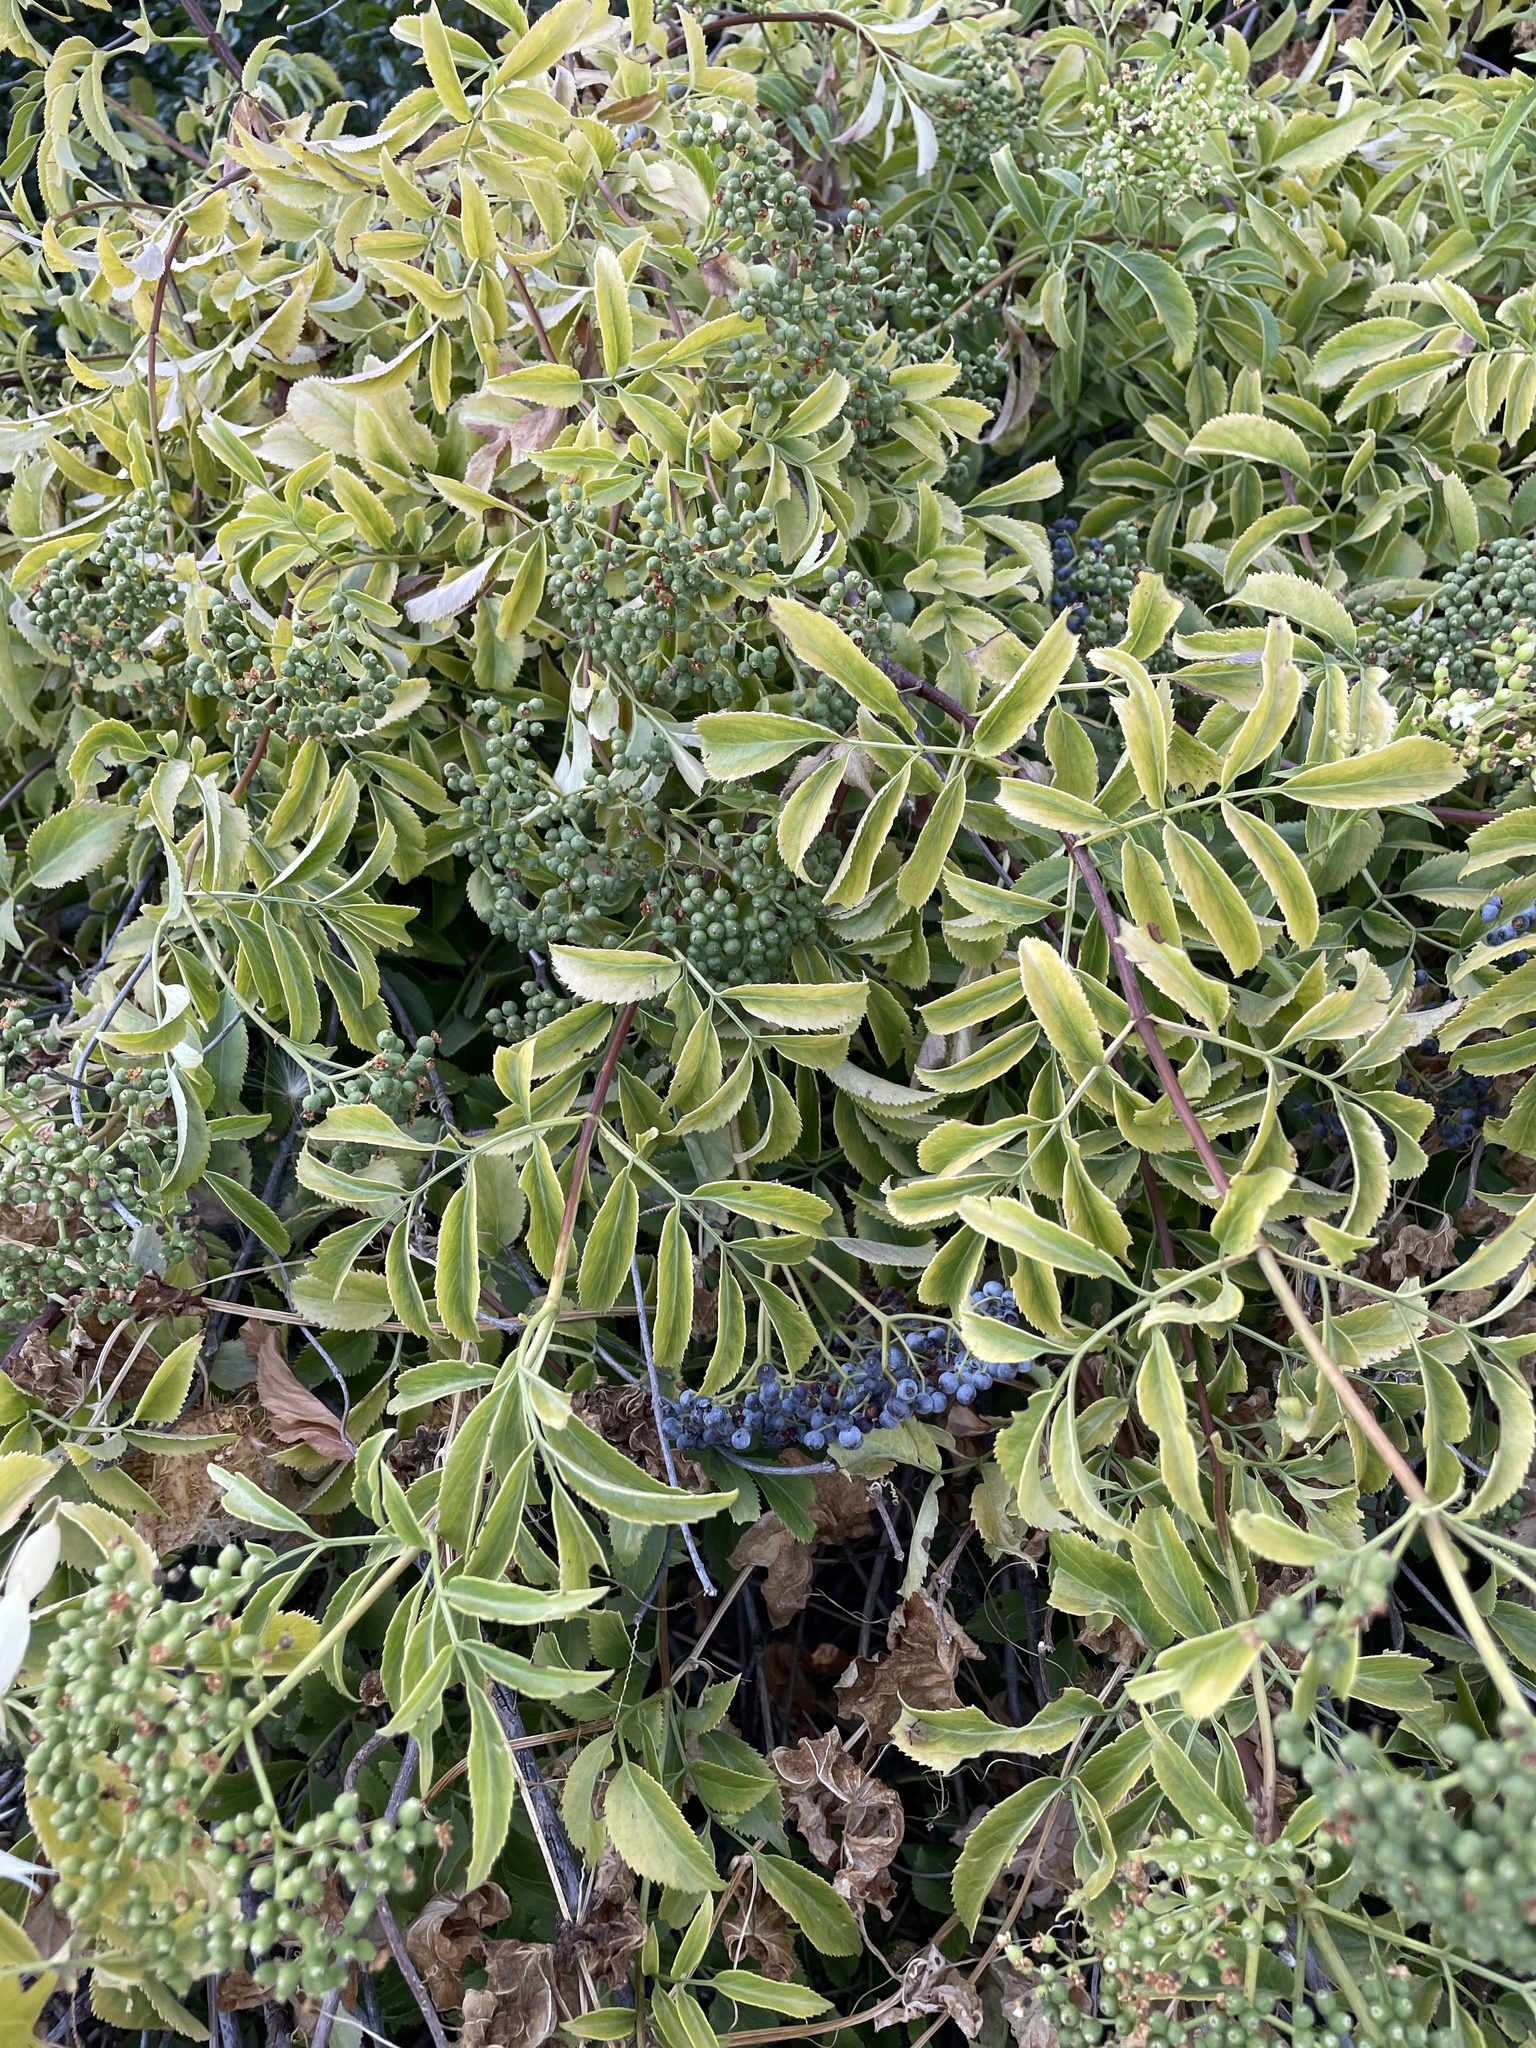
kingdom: Plantae
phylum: Tracheophyta
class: Magnoliopsida
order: Dipsacales
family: Viburnaceae
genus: Sambucus
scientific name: Sambucus cerulea
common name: Blue elder
